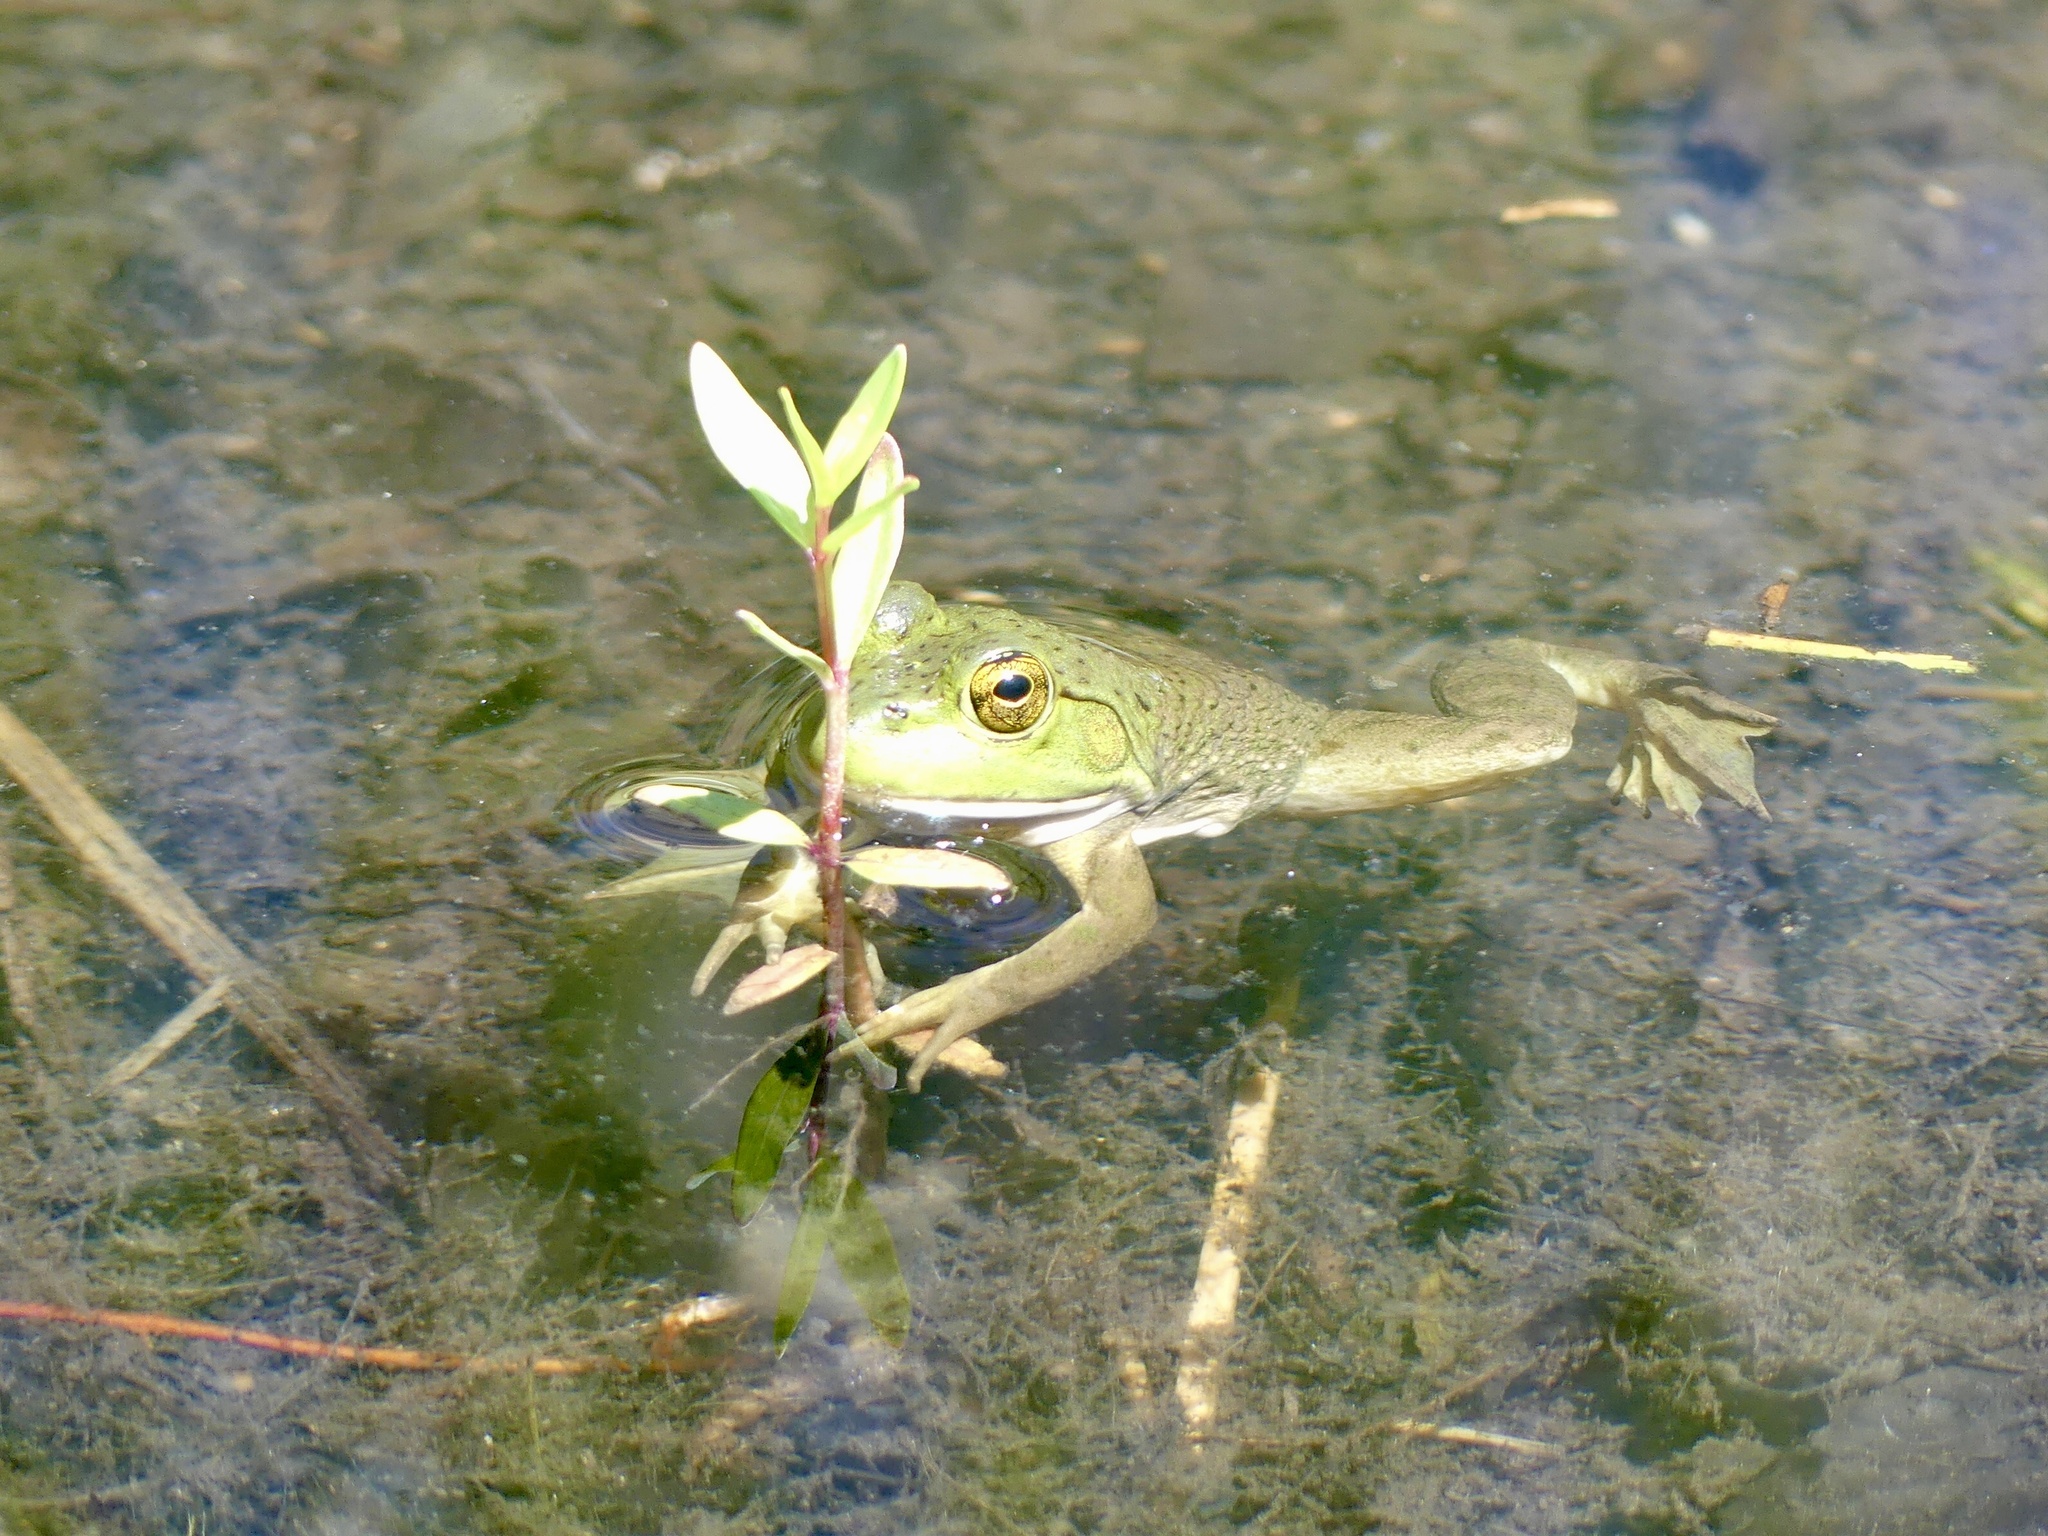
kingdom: Animalia
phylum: Chordata
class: Amphibia
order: Anura
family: Ranidae
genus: Lithobates
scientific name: Lithobates catesbeianus
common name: American bullfrog
